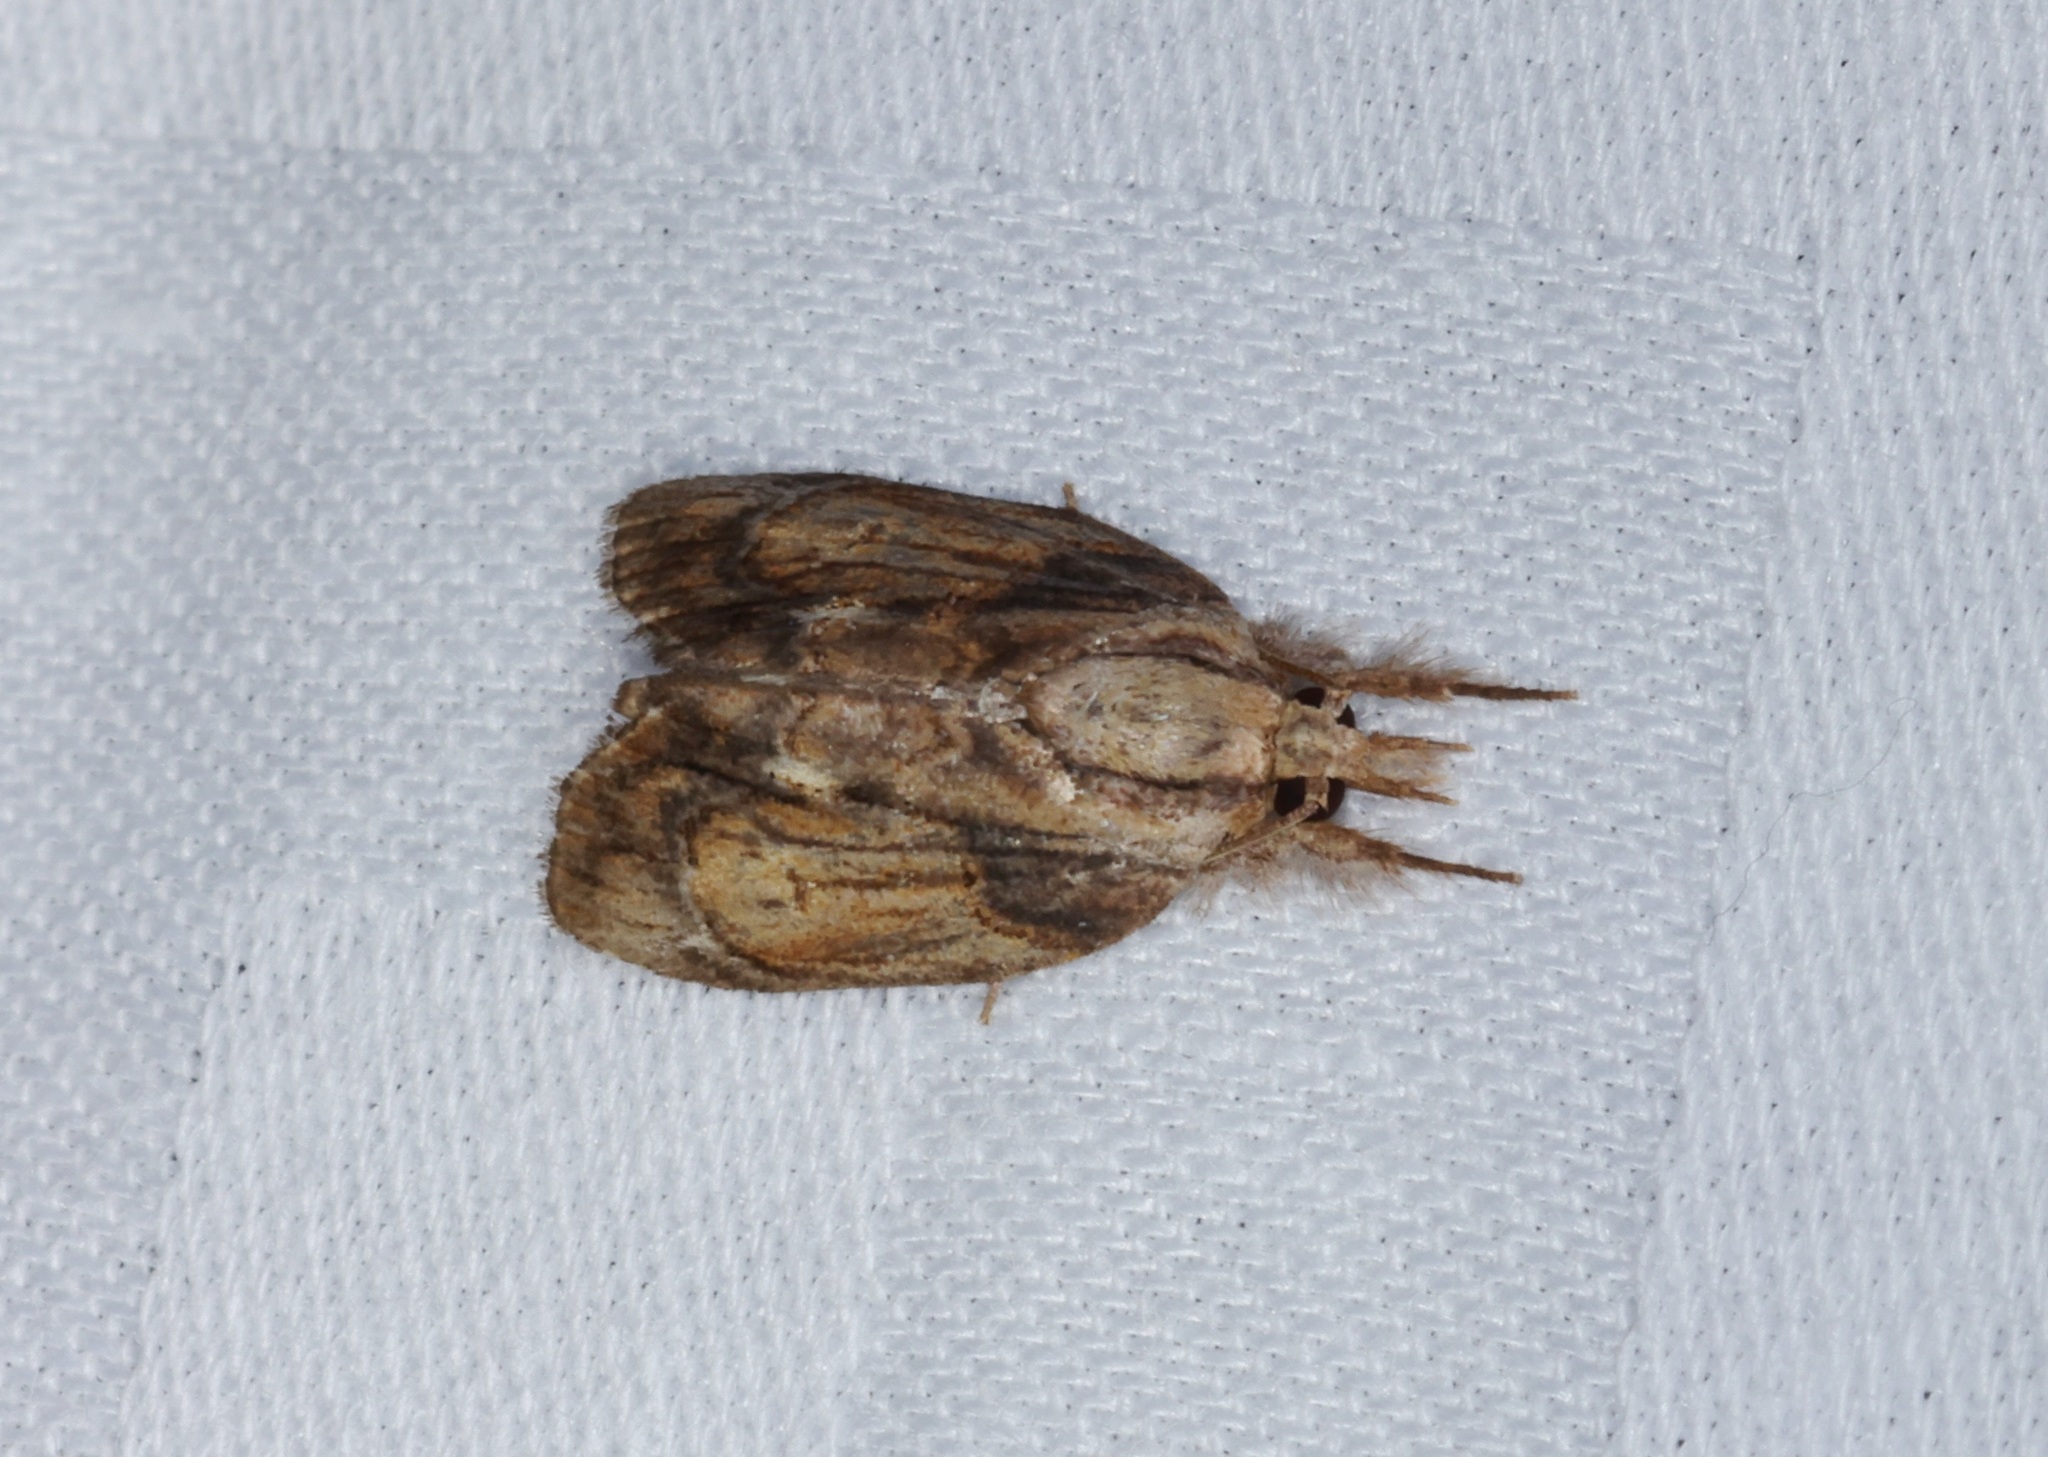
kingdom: Animalia
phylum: Arthropoda
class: Insecta
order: Lepidoptera
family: Nolidae
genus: Selepa
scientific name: Selepa discigera
